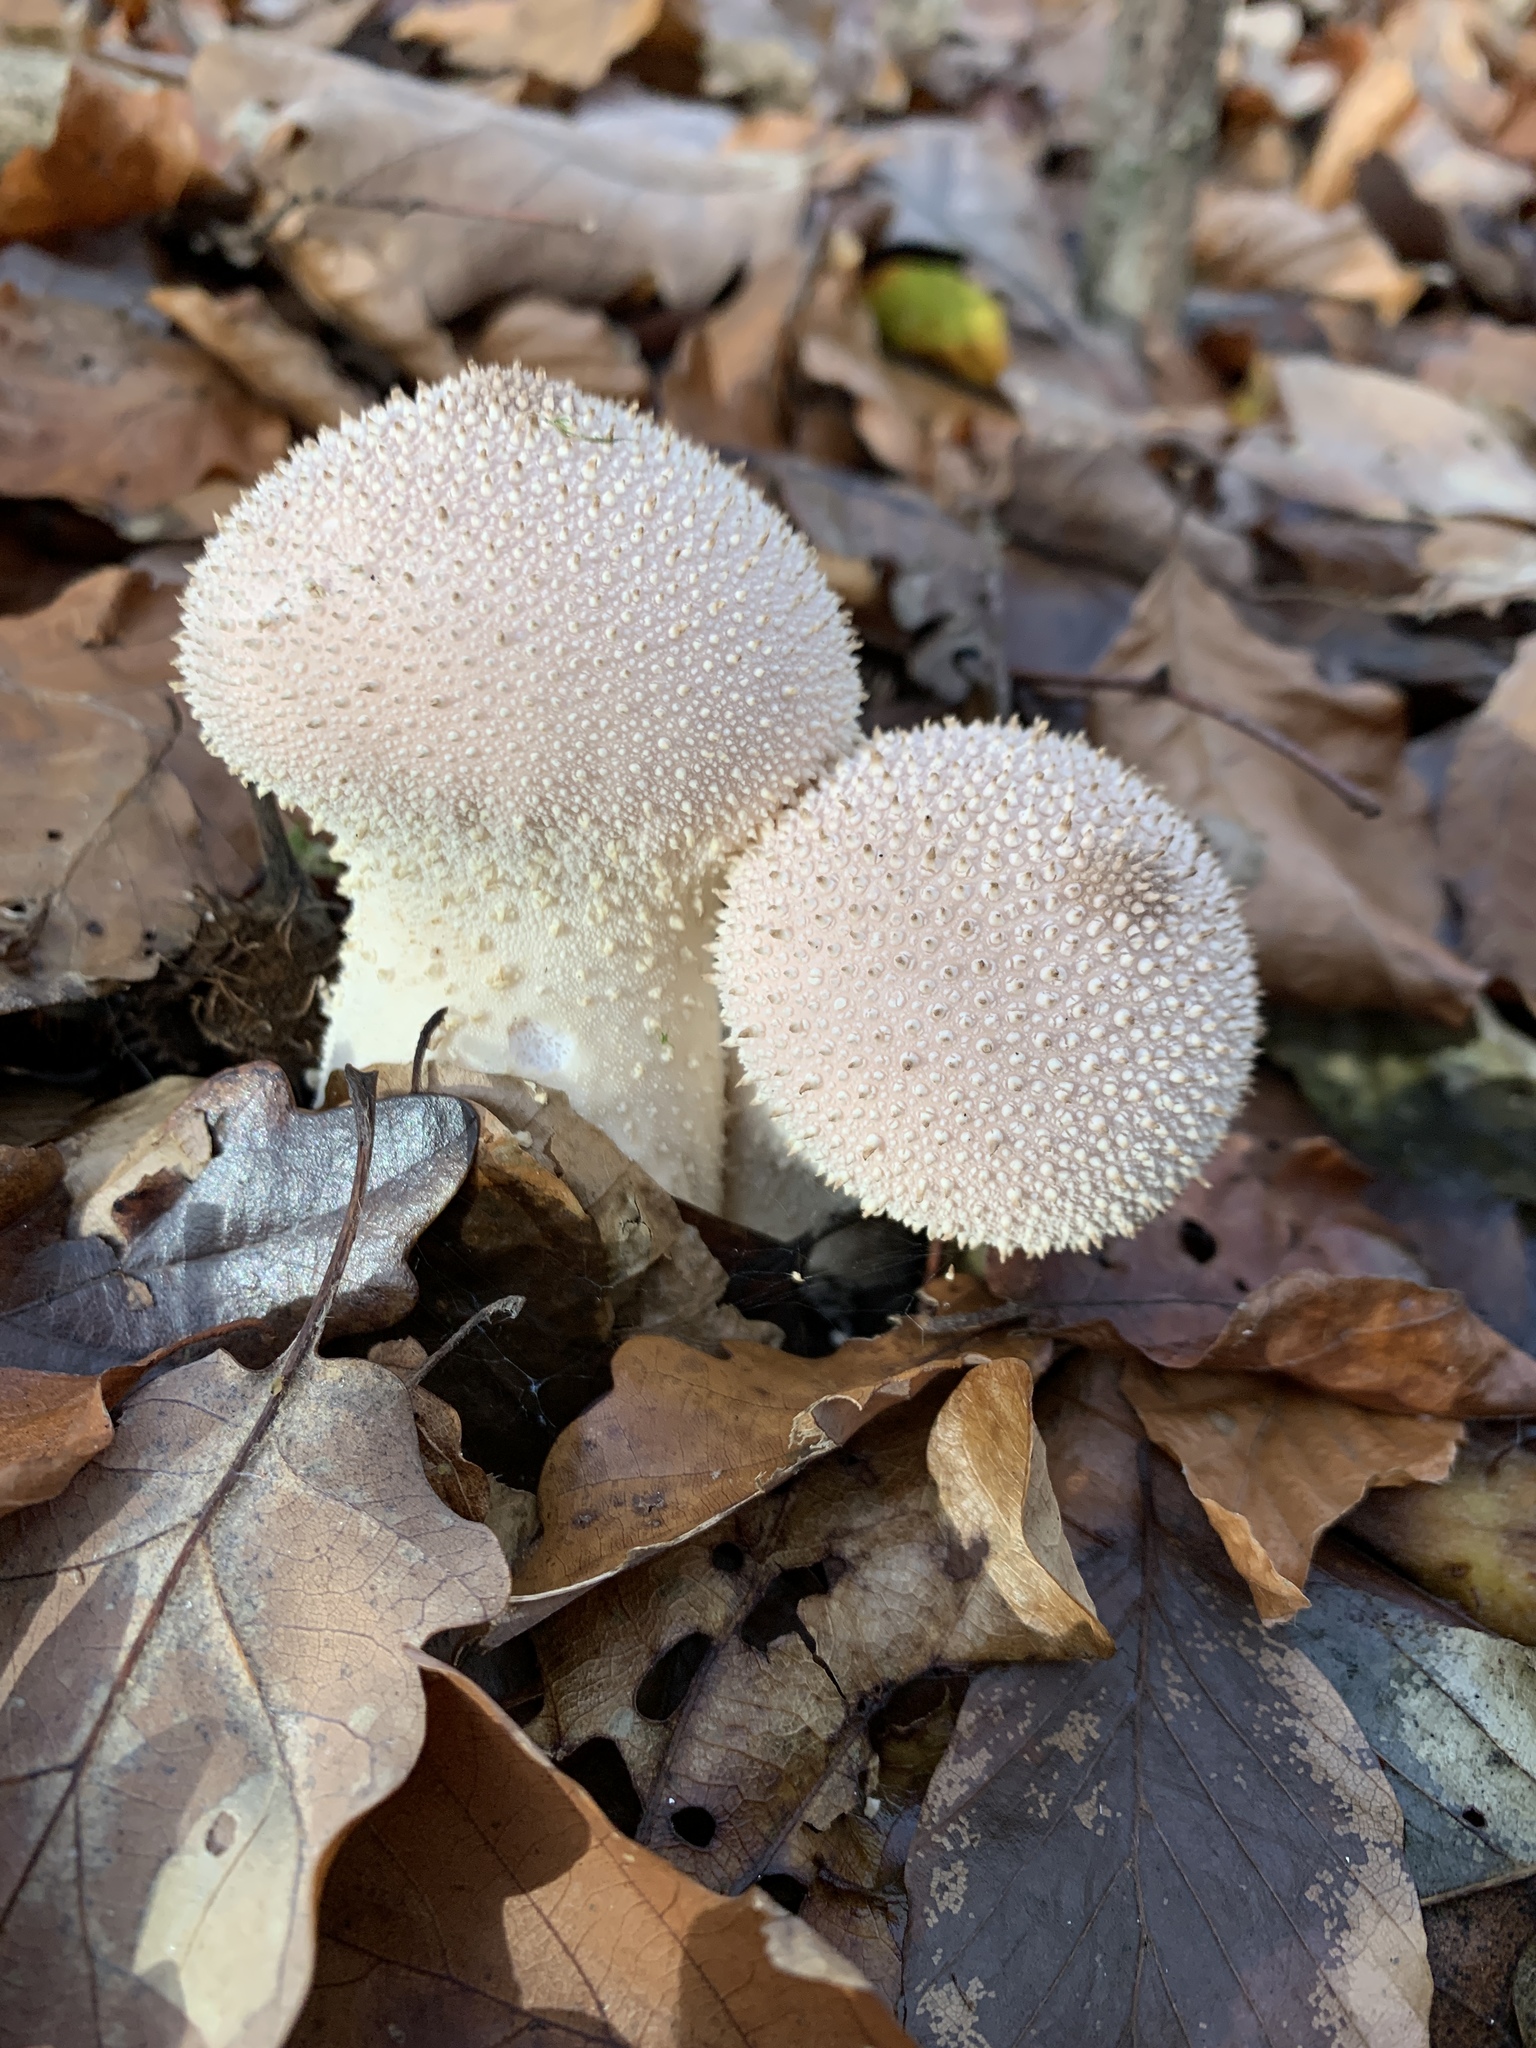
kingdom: Fungi
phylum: Basidiomycota
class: Agaricomycetes
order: Agaricales
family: Lycoperdaceae
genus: Lycoperdon
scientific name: Lycoperdon perlatum
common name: Common puffball
